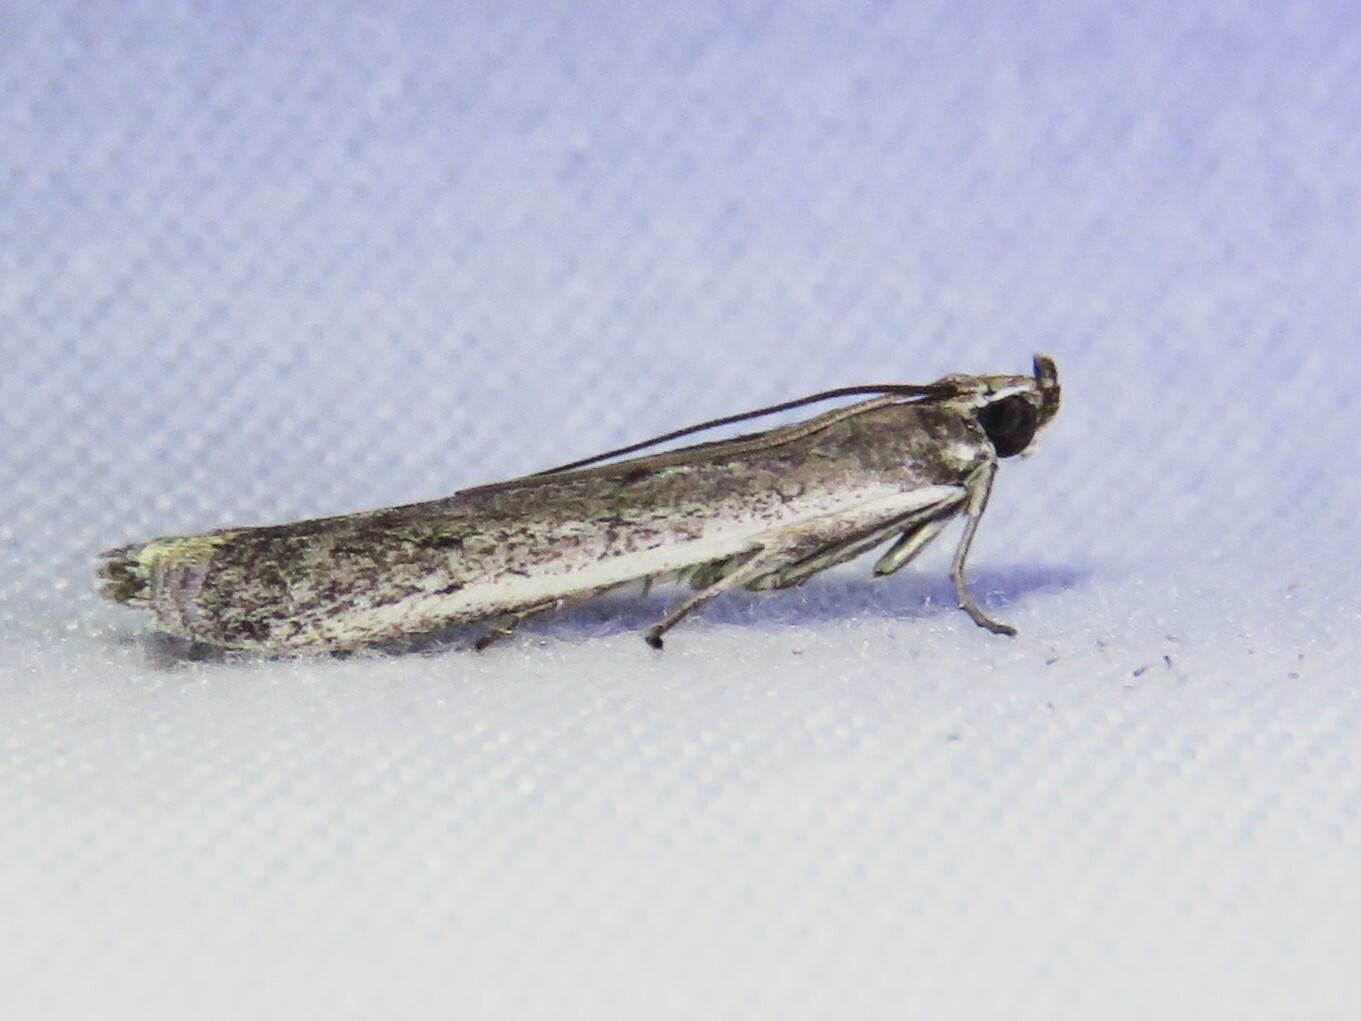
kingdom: Animalia
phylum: Arthropoda
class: Insecta
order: Lepidoptera
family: Pyralidae
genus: Homoeosoma
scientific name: Homoeosoma electella
